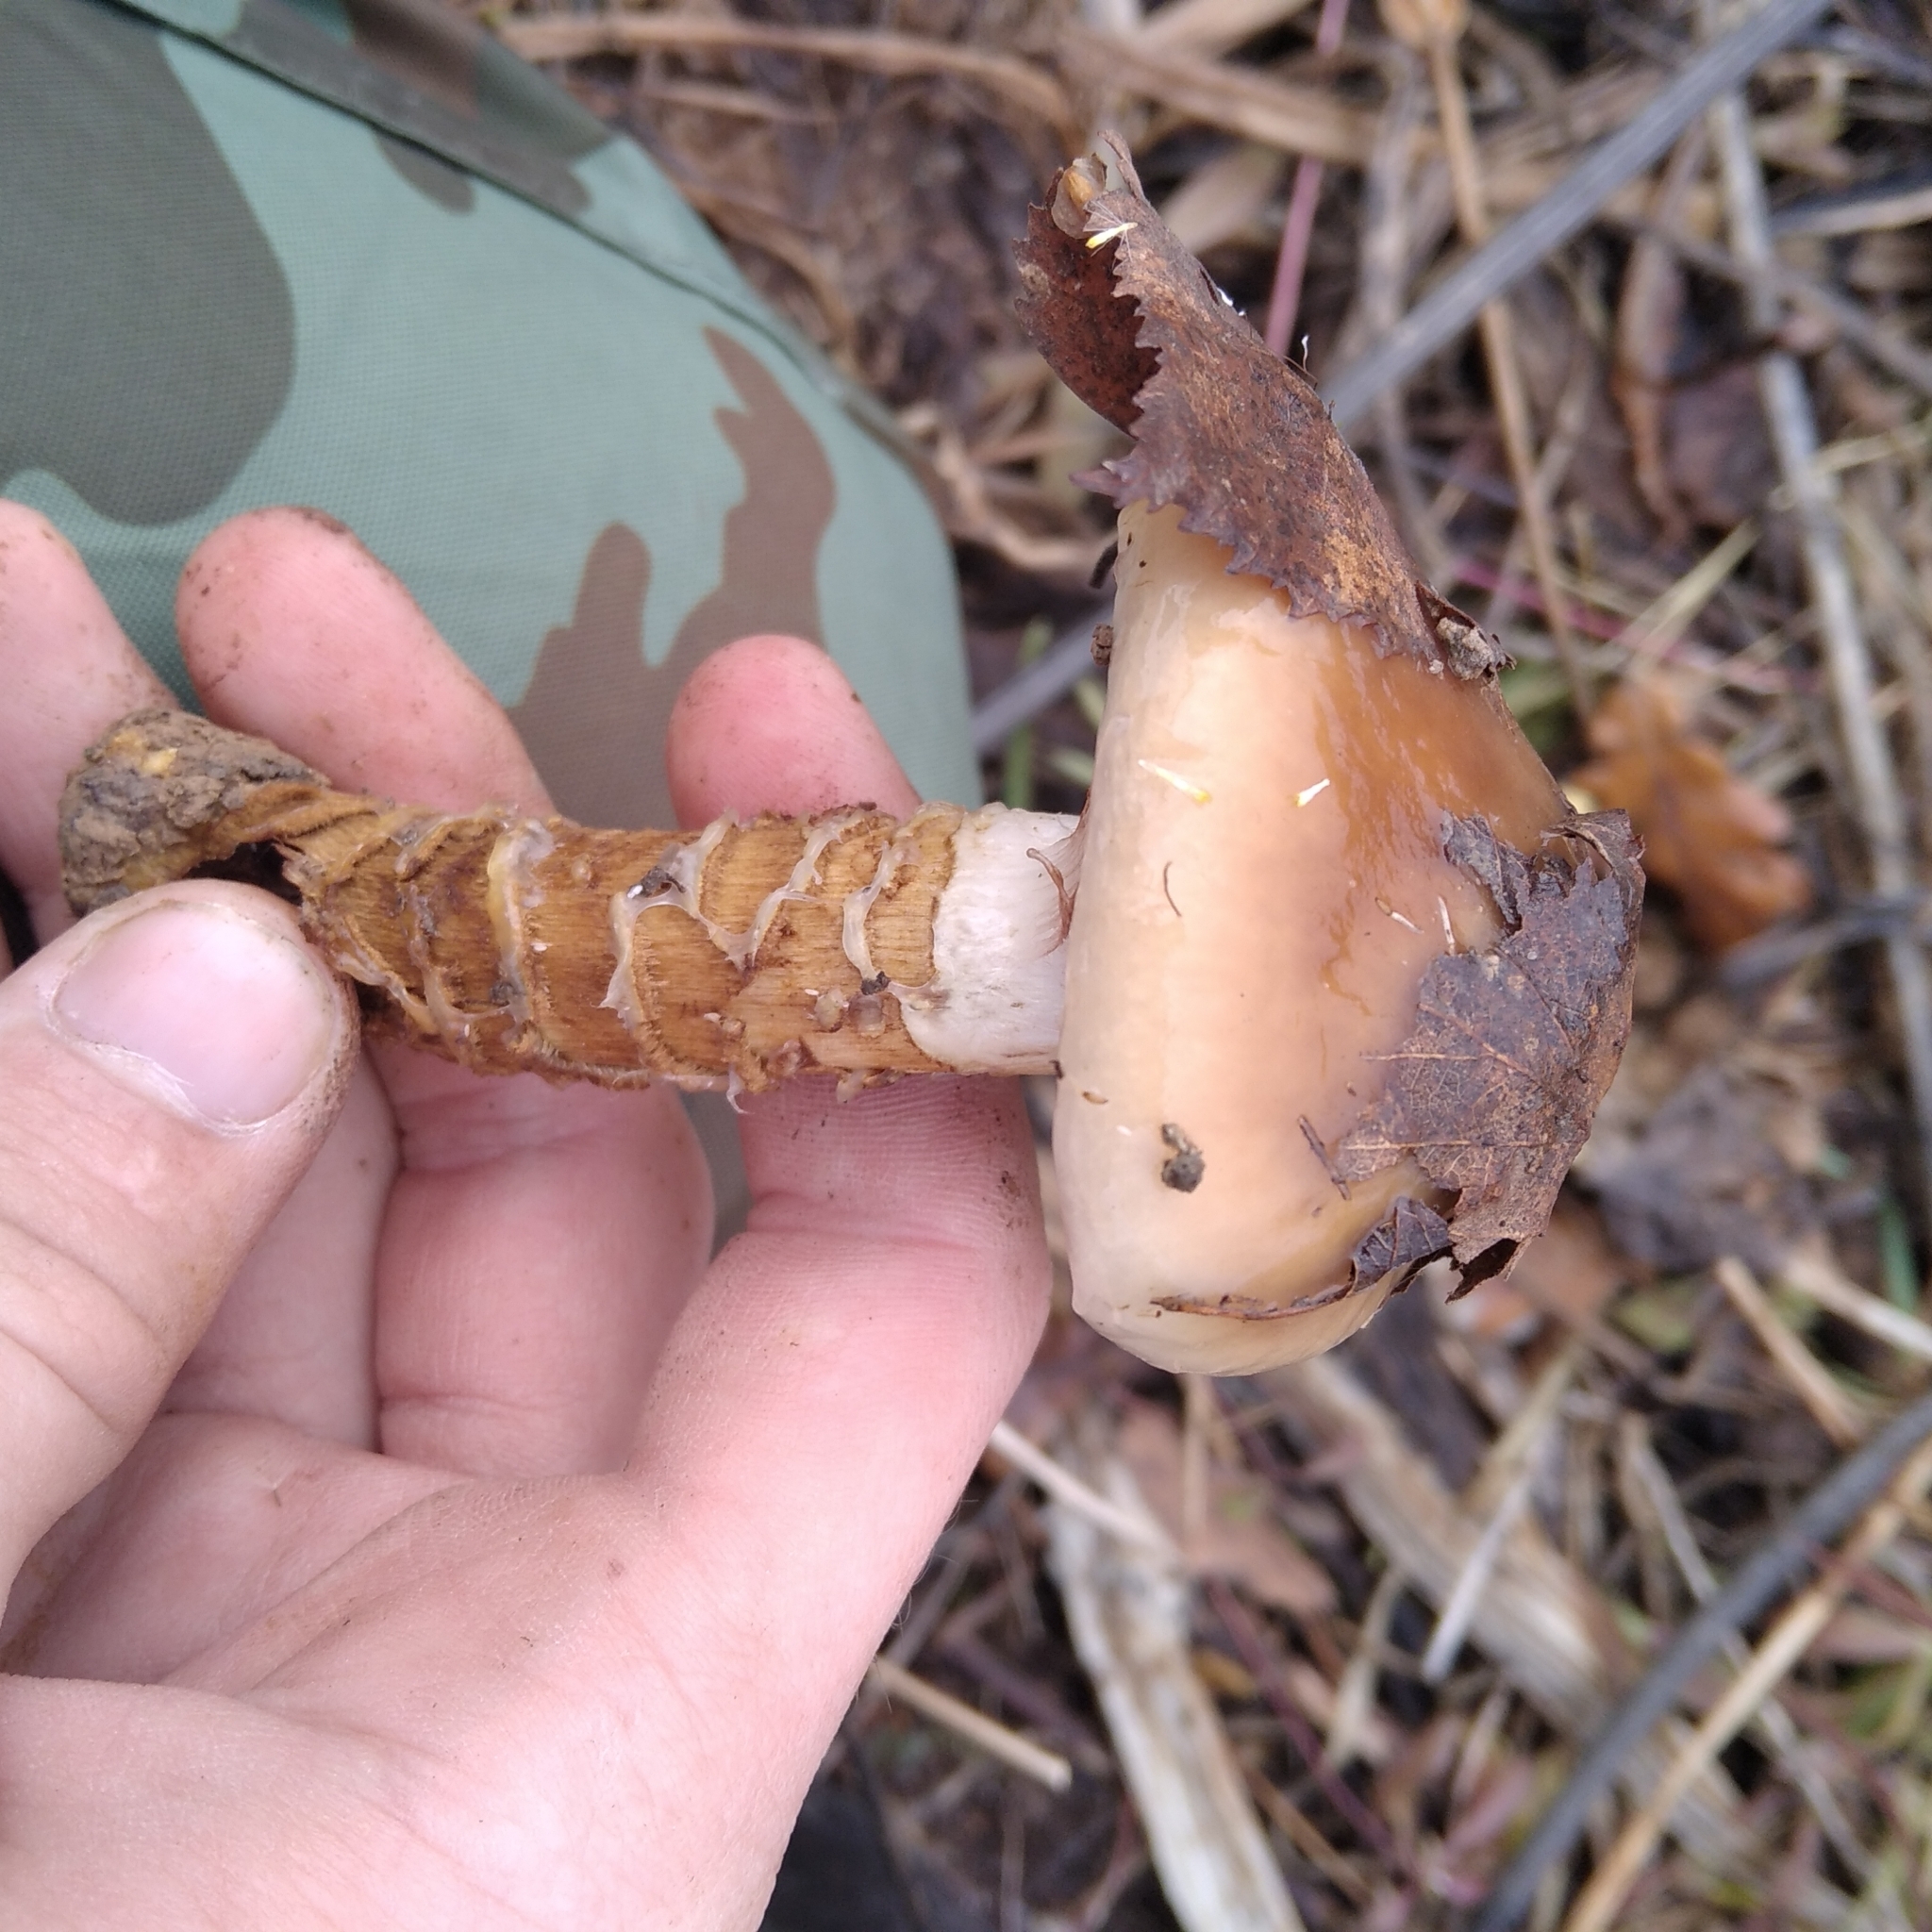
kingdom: Fungi
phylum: Basidiomycota
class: Agaricomycetes
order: Agaricales
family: Cortinariaceae
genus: Cortinarius
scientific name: Cortinarius trivialis
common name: Girdled webcap
